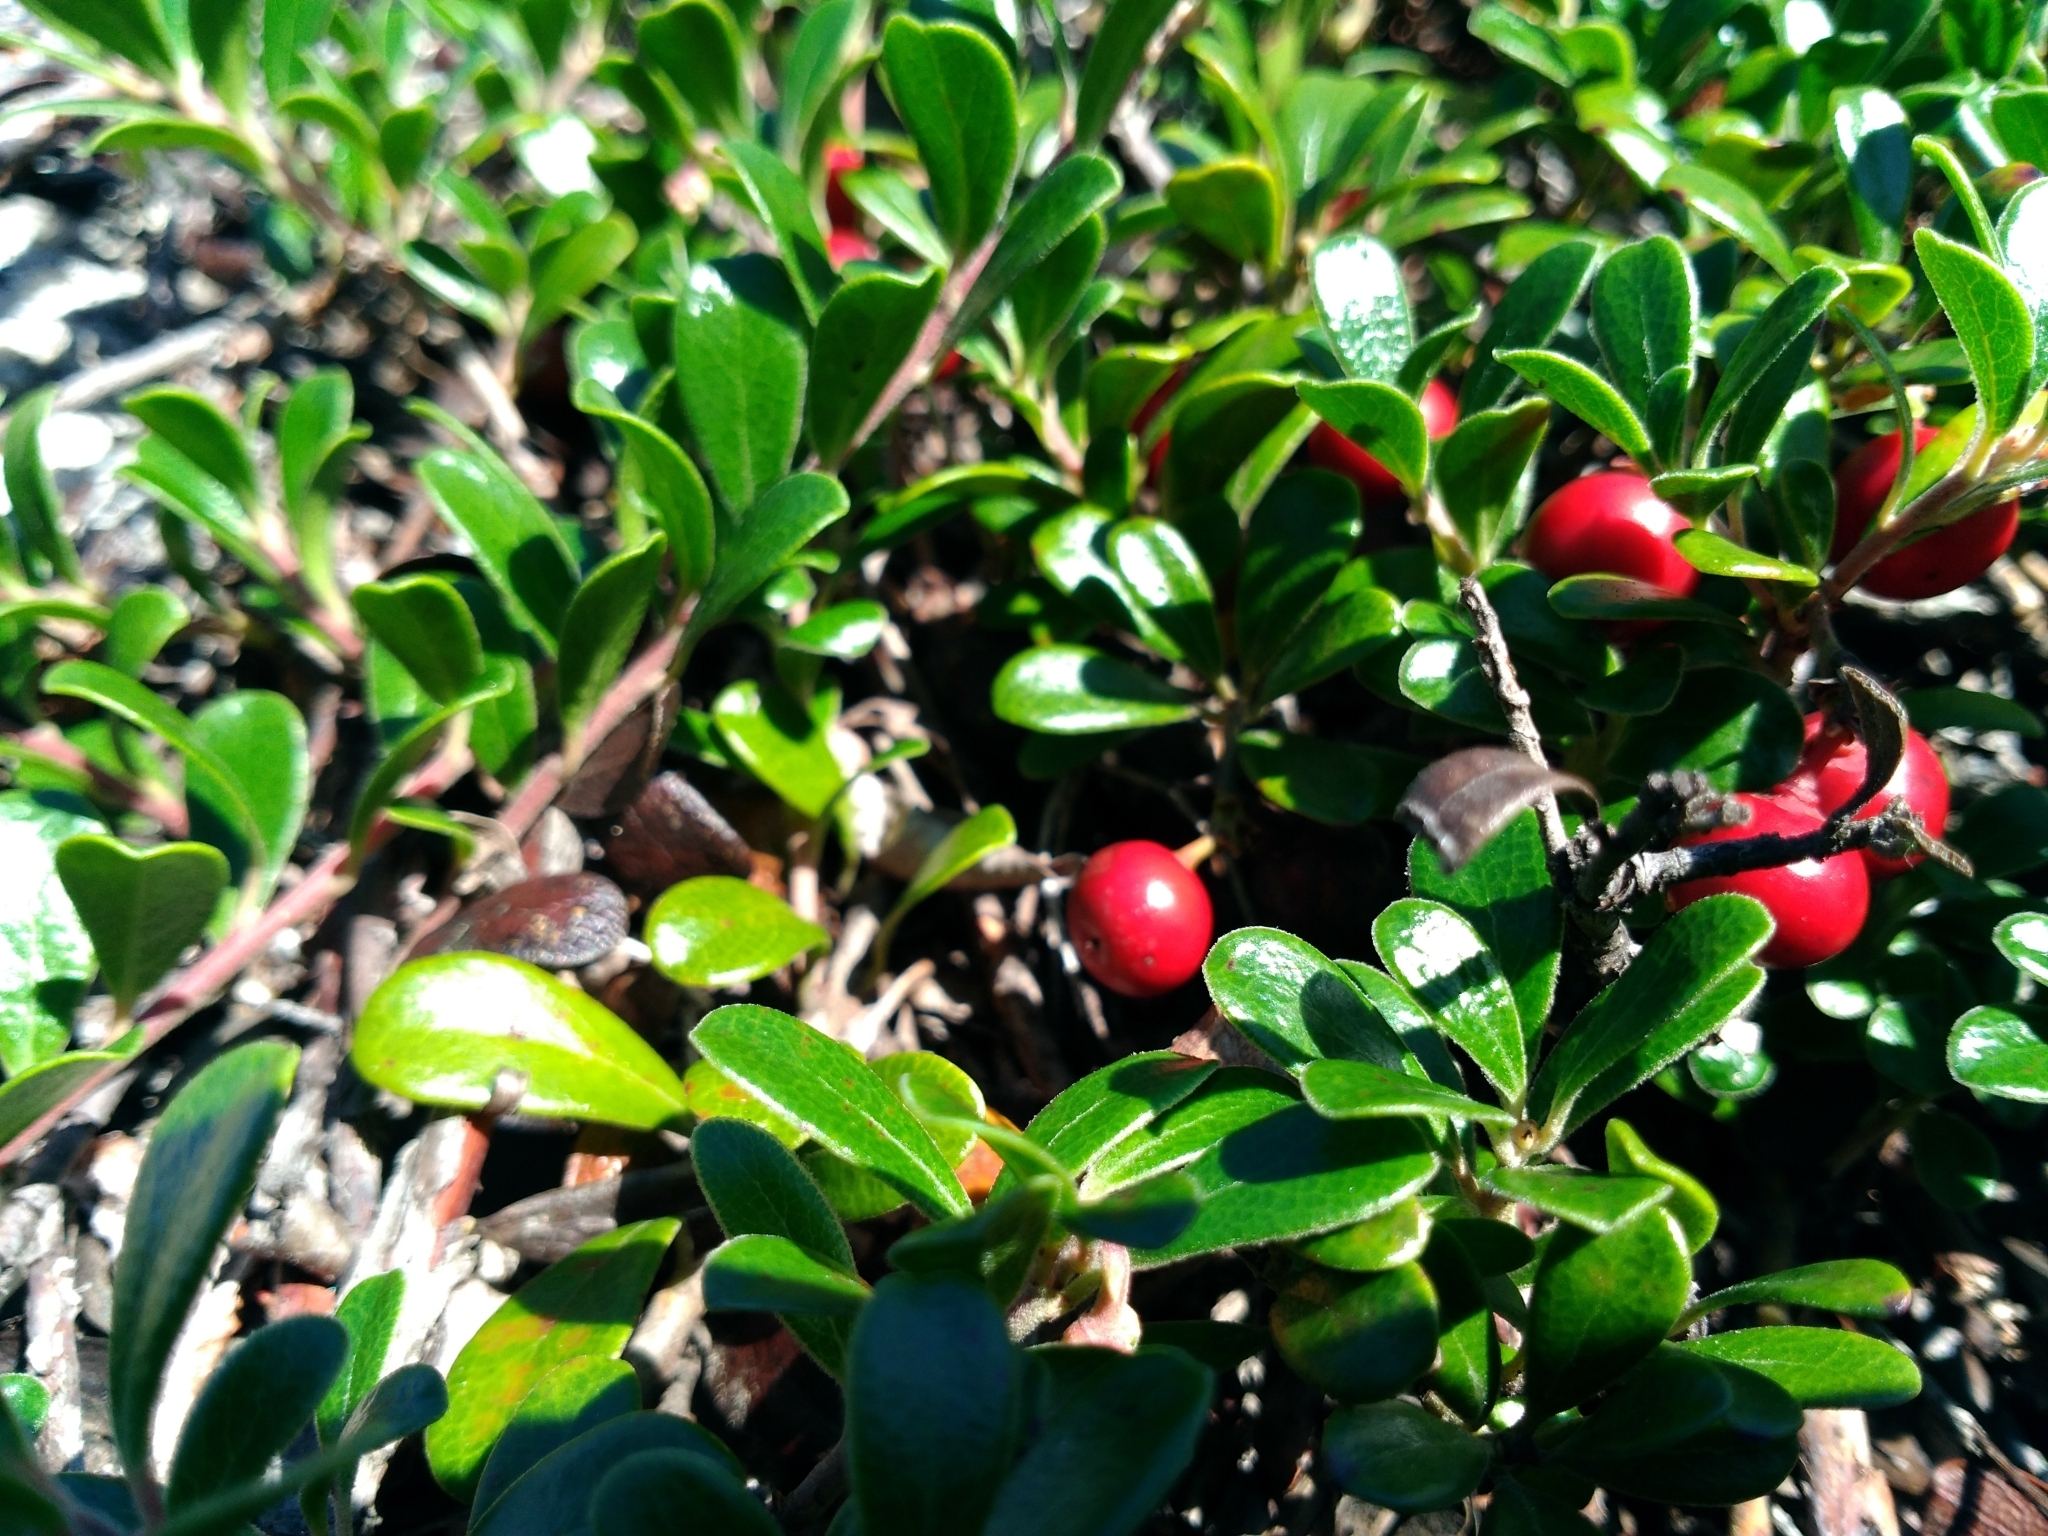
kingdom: Plantae
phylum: Tracheophyta
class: Magnoliopsida
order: Ericales
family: Ericaceae
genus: Arctostaphylos
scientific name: Arctostaphylos uva-ursi
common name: Bearberry
